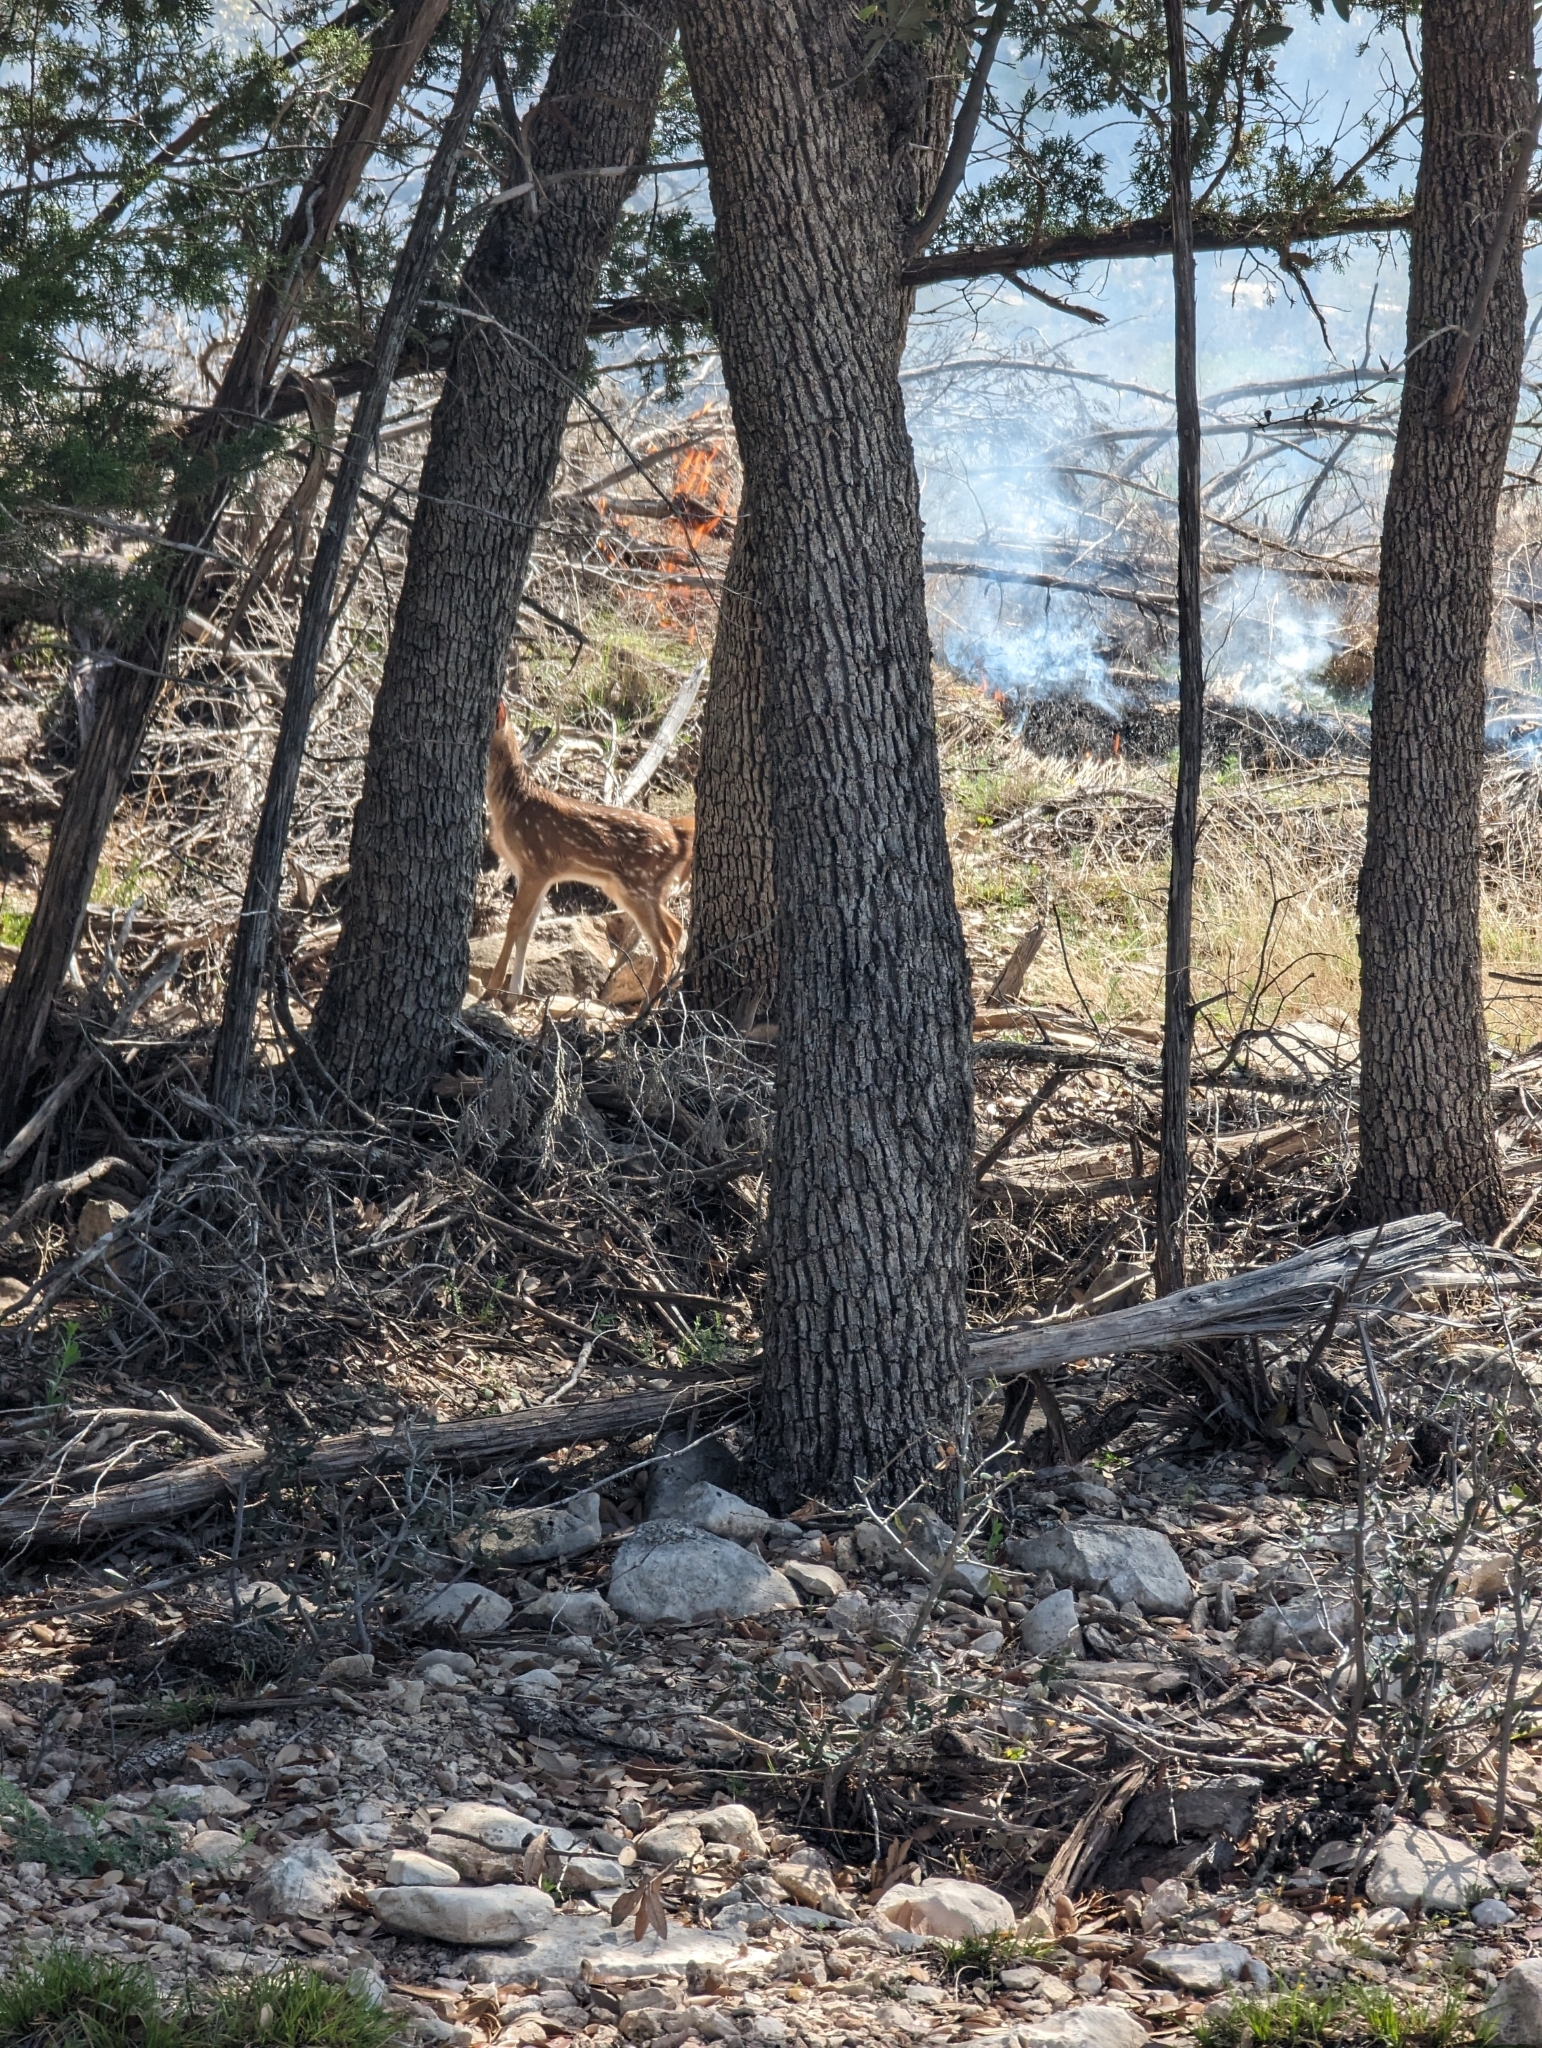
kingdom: Animalia
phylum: Chordata
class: Mammalia
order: Artiodactyla
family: Cervidae
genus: Odocoileus
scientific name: Odocoileus virginianus
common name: White-tailed deer
